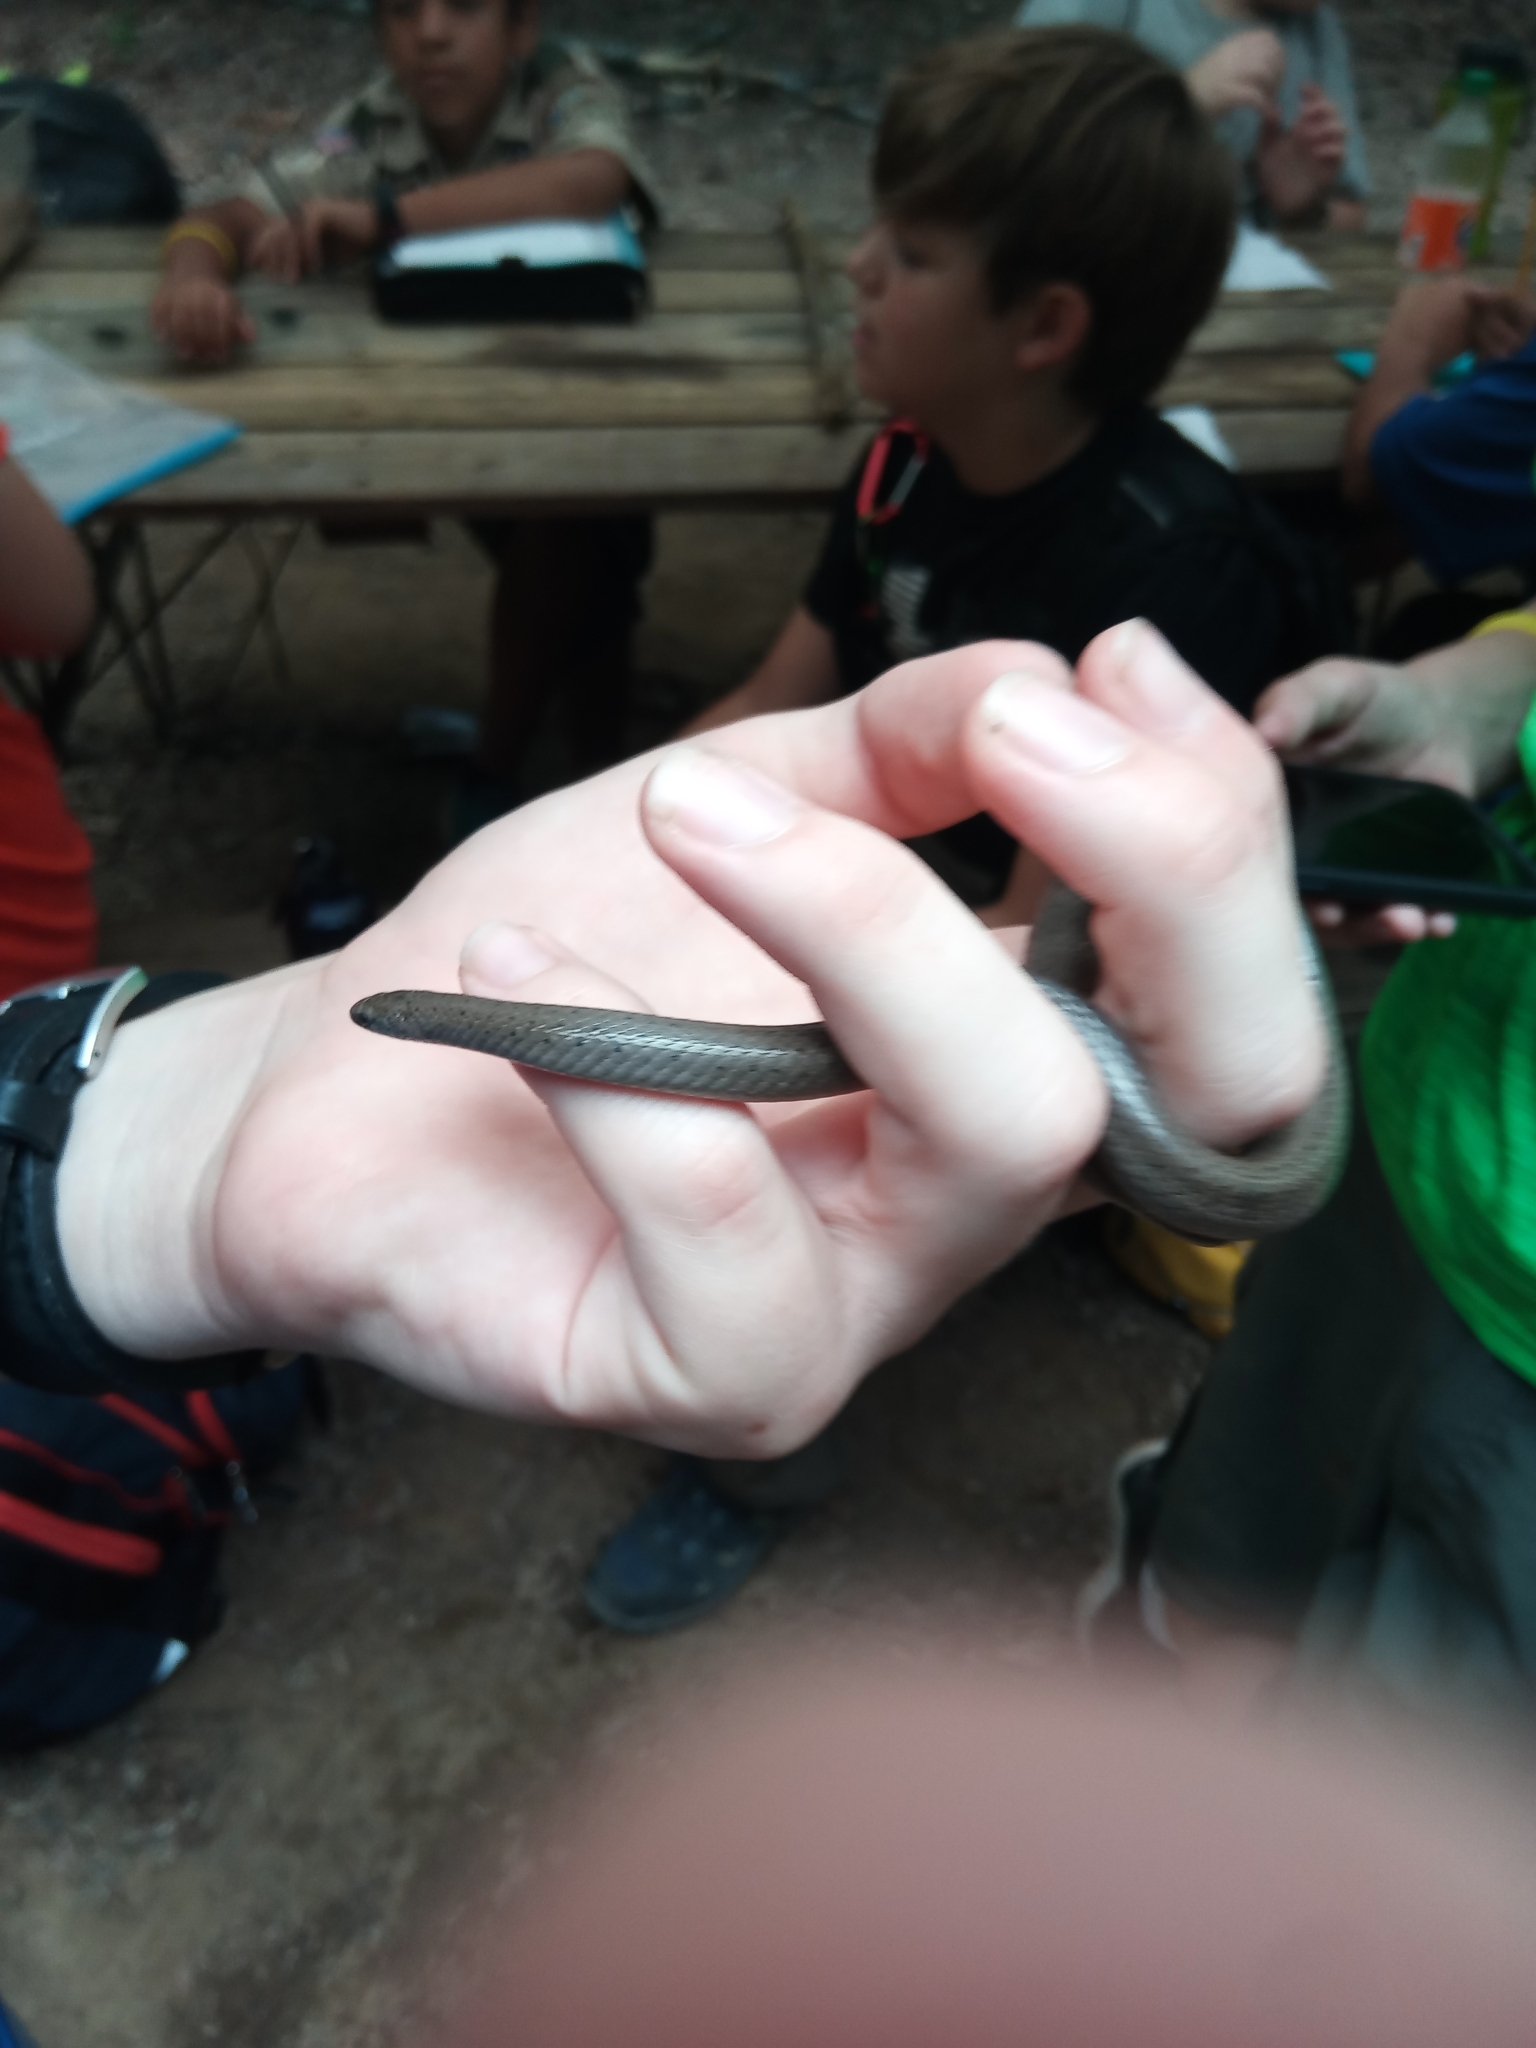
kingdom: Animalia
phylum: Chordata
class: Squamata
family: Colubridae
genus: Virginia
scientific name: Virginia valeriae
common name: Smooth earth snake
